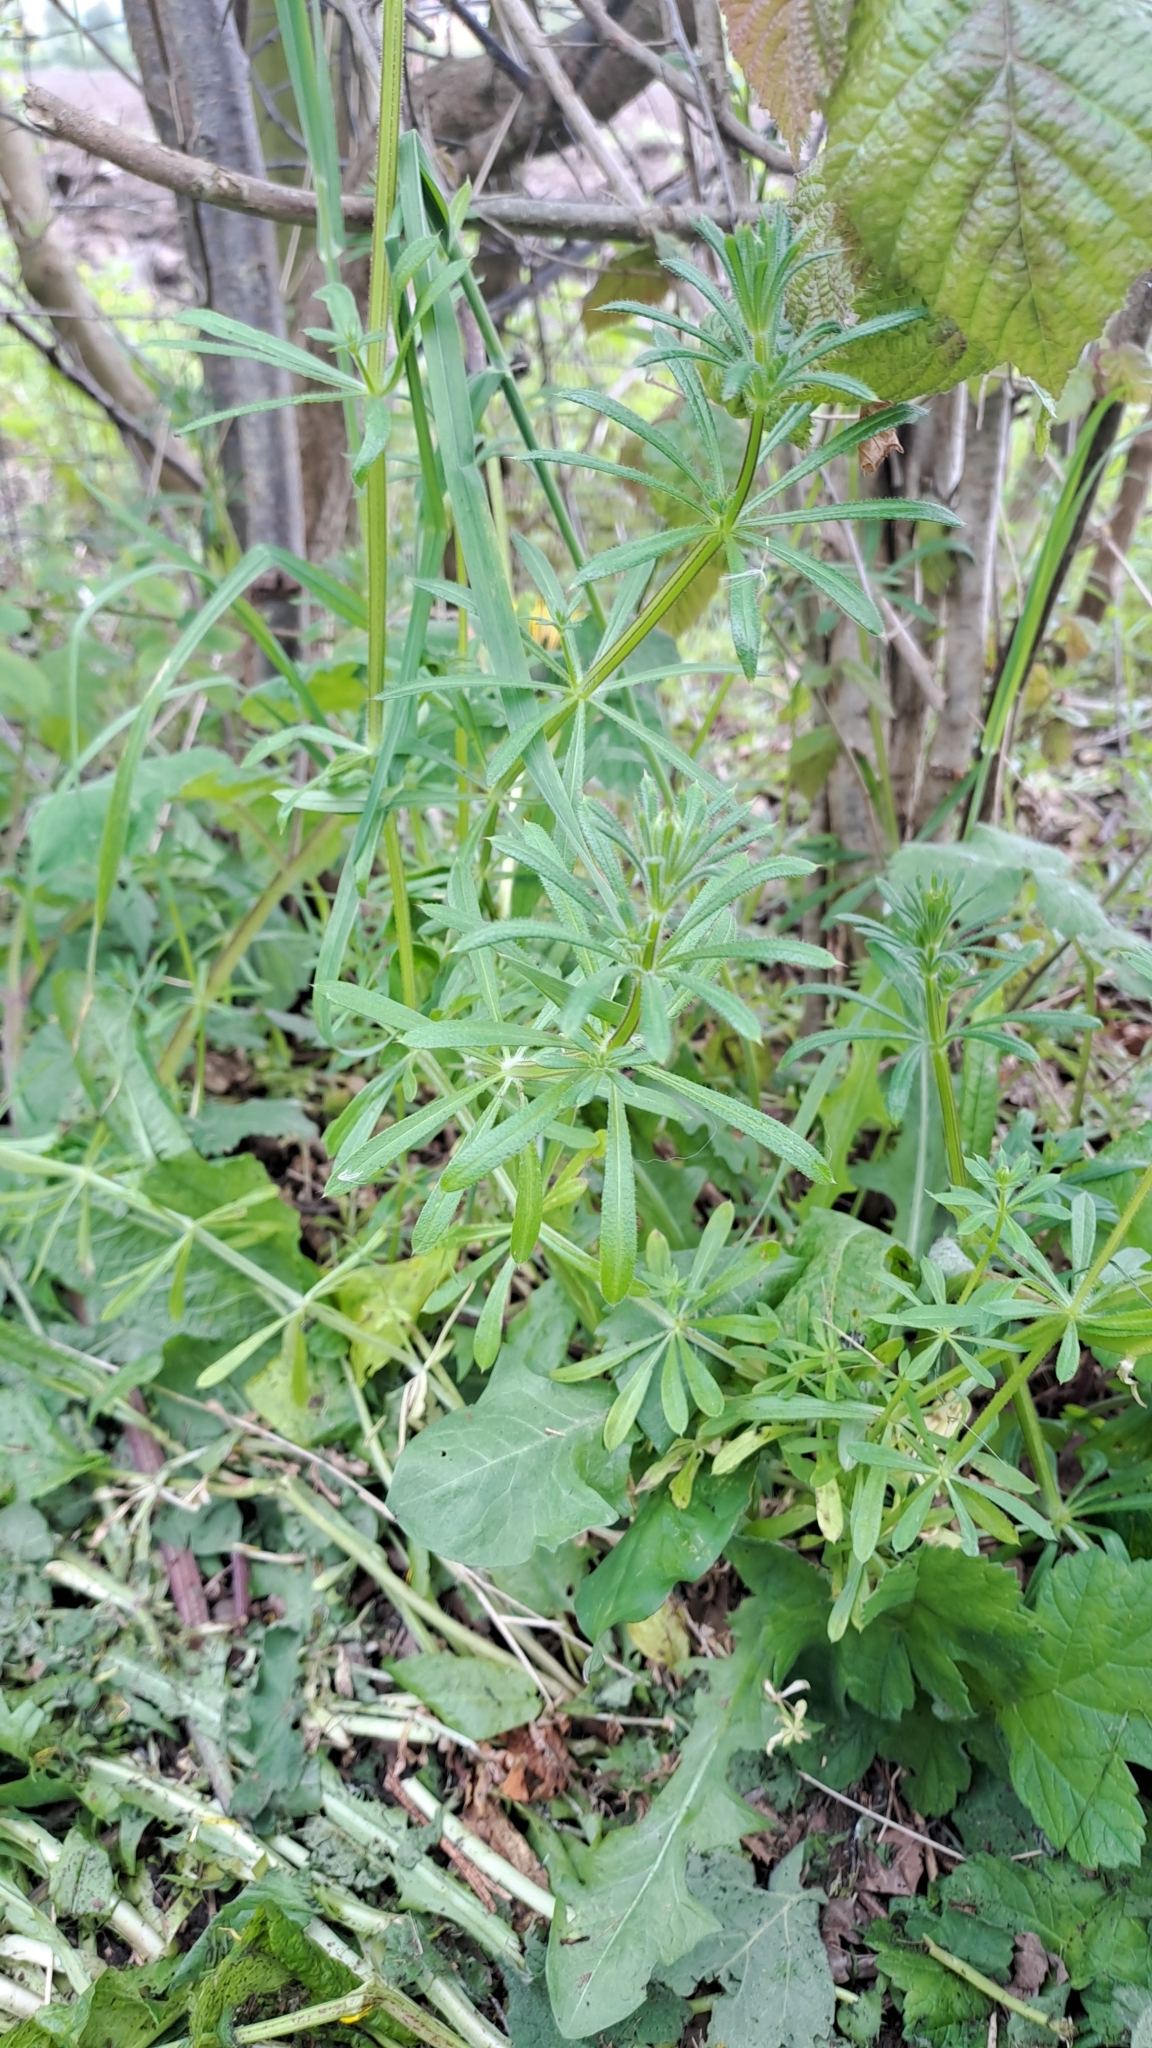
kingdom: Plantae
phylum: Tracheophyta
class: Magnoliopsida
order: Gentianales
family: Rubiaceae
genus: Galium
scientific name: Galium aparine
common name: Cleavers
